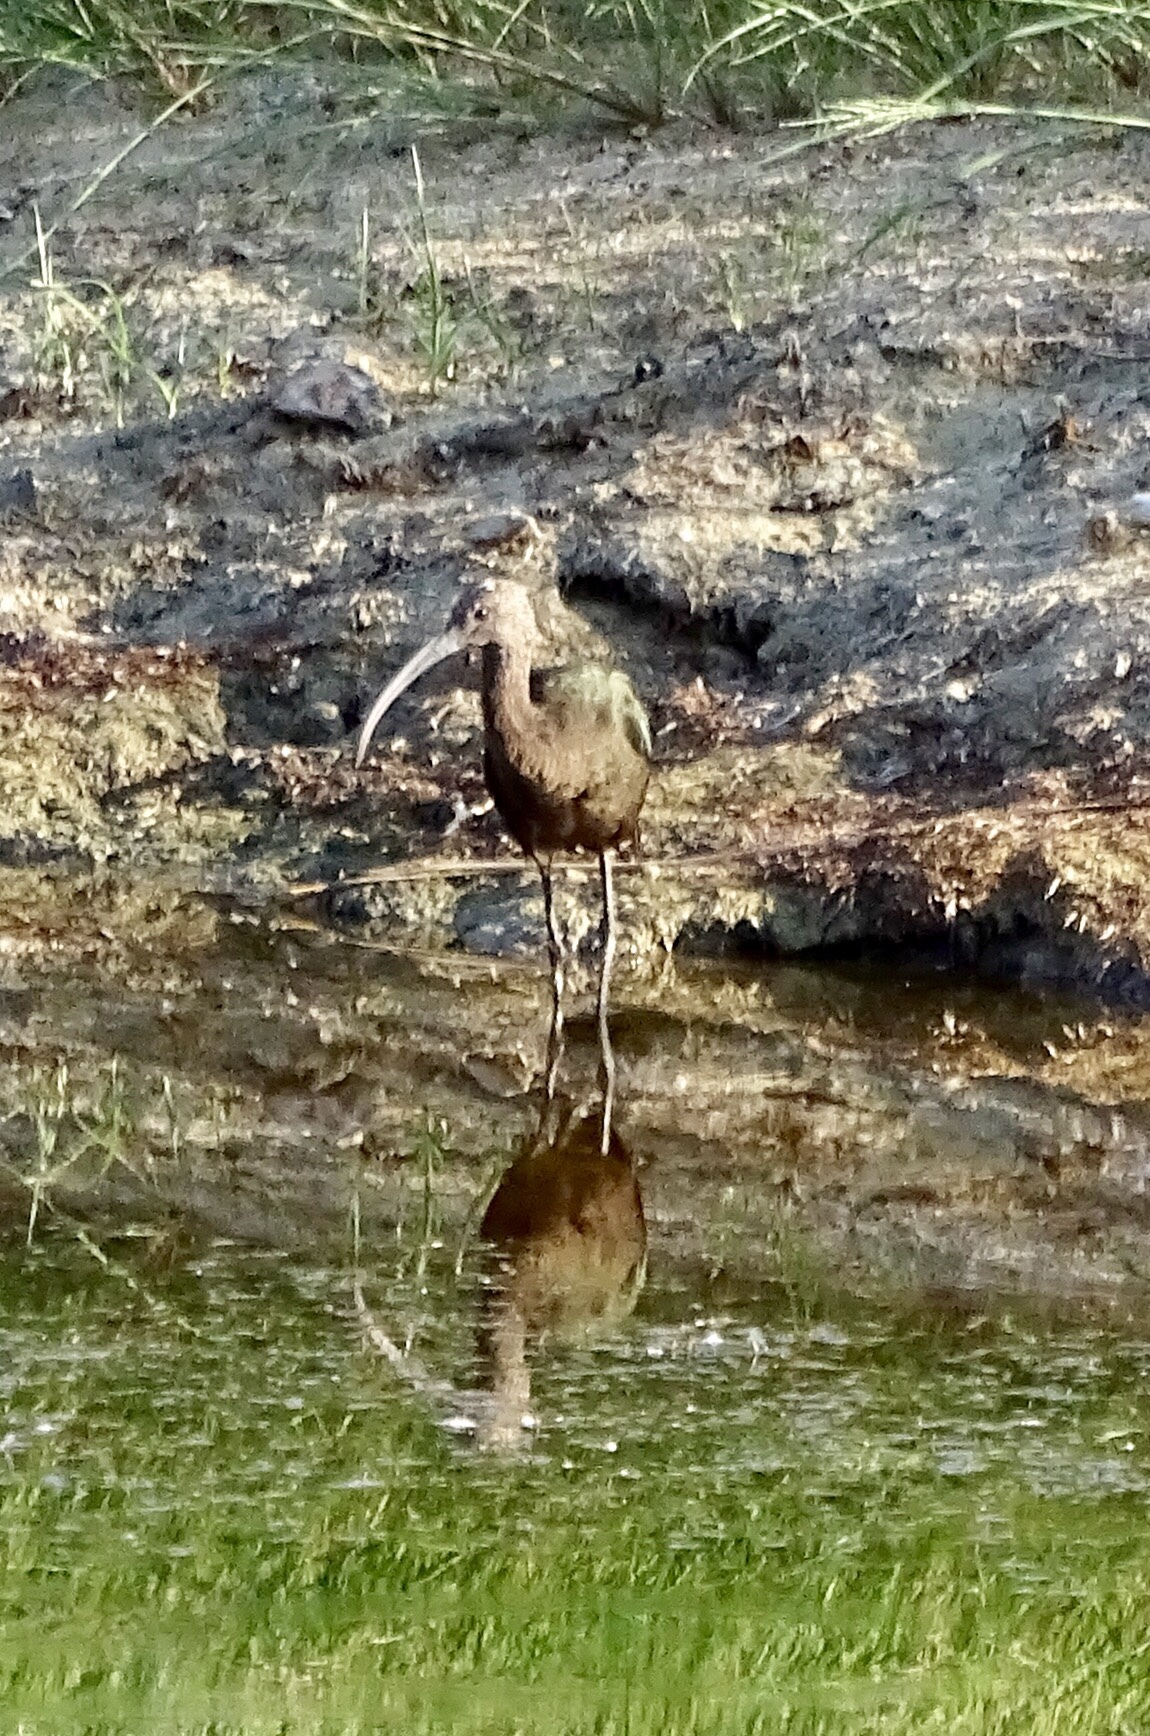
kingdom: Animalia
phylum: Chordata
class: Aves
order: Pelecaniformes
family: Threskiornithidae
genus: Plegadis
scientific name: Plegadis chihi
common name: White-faced ibis
